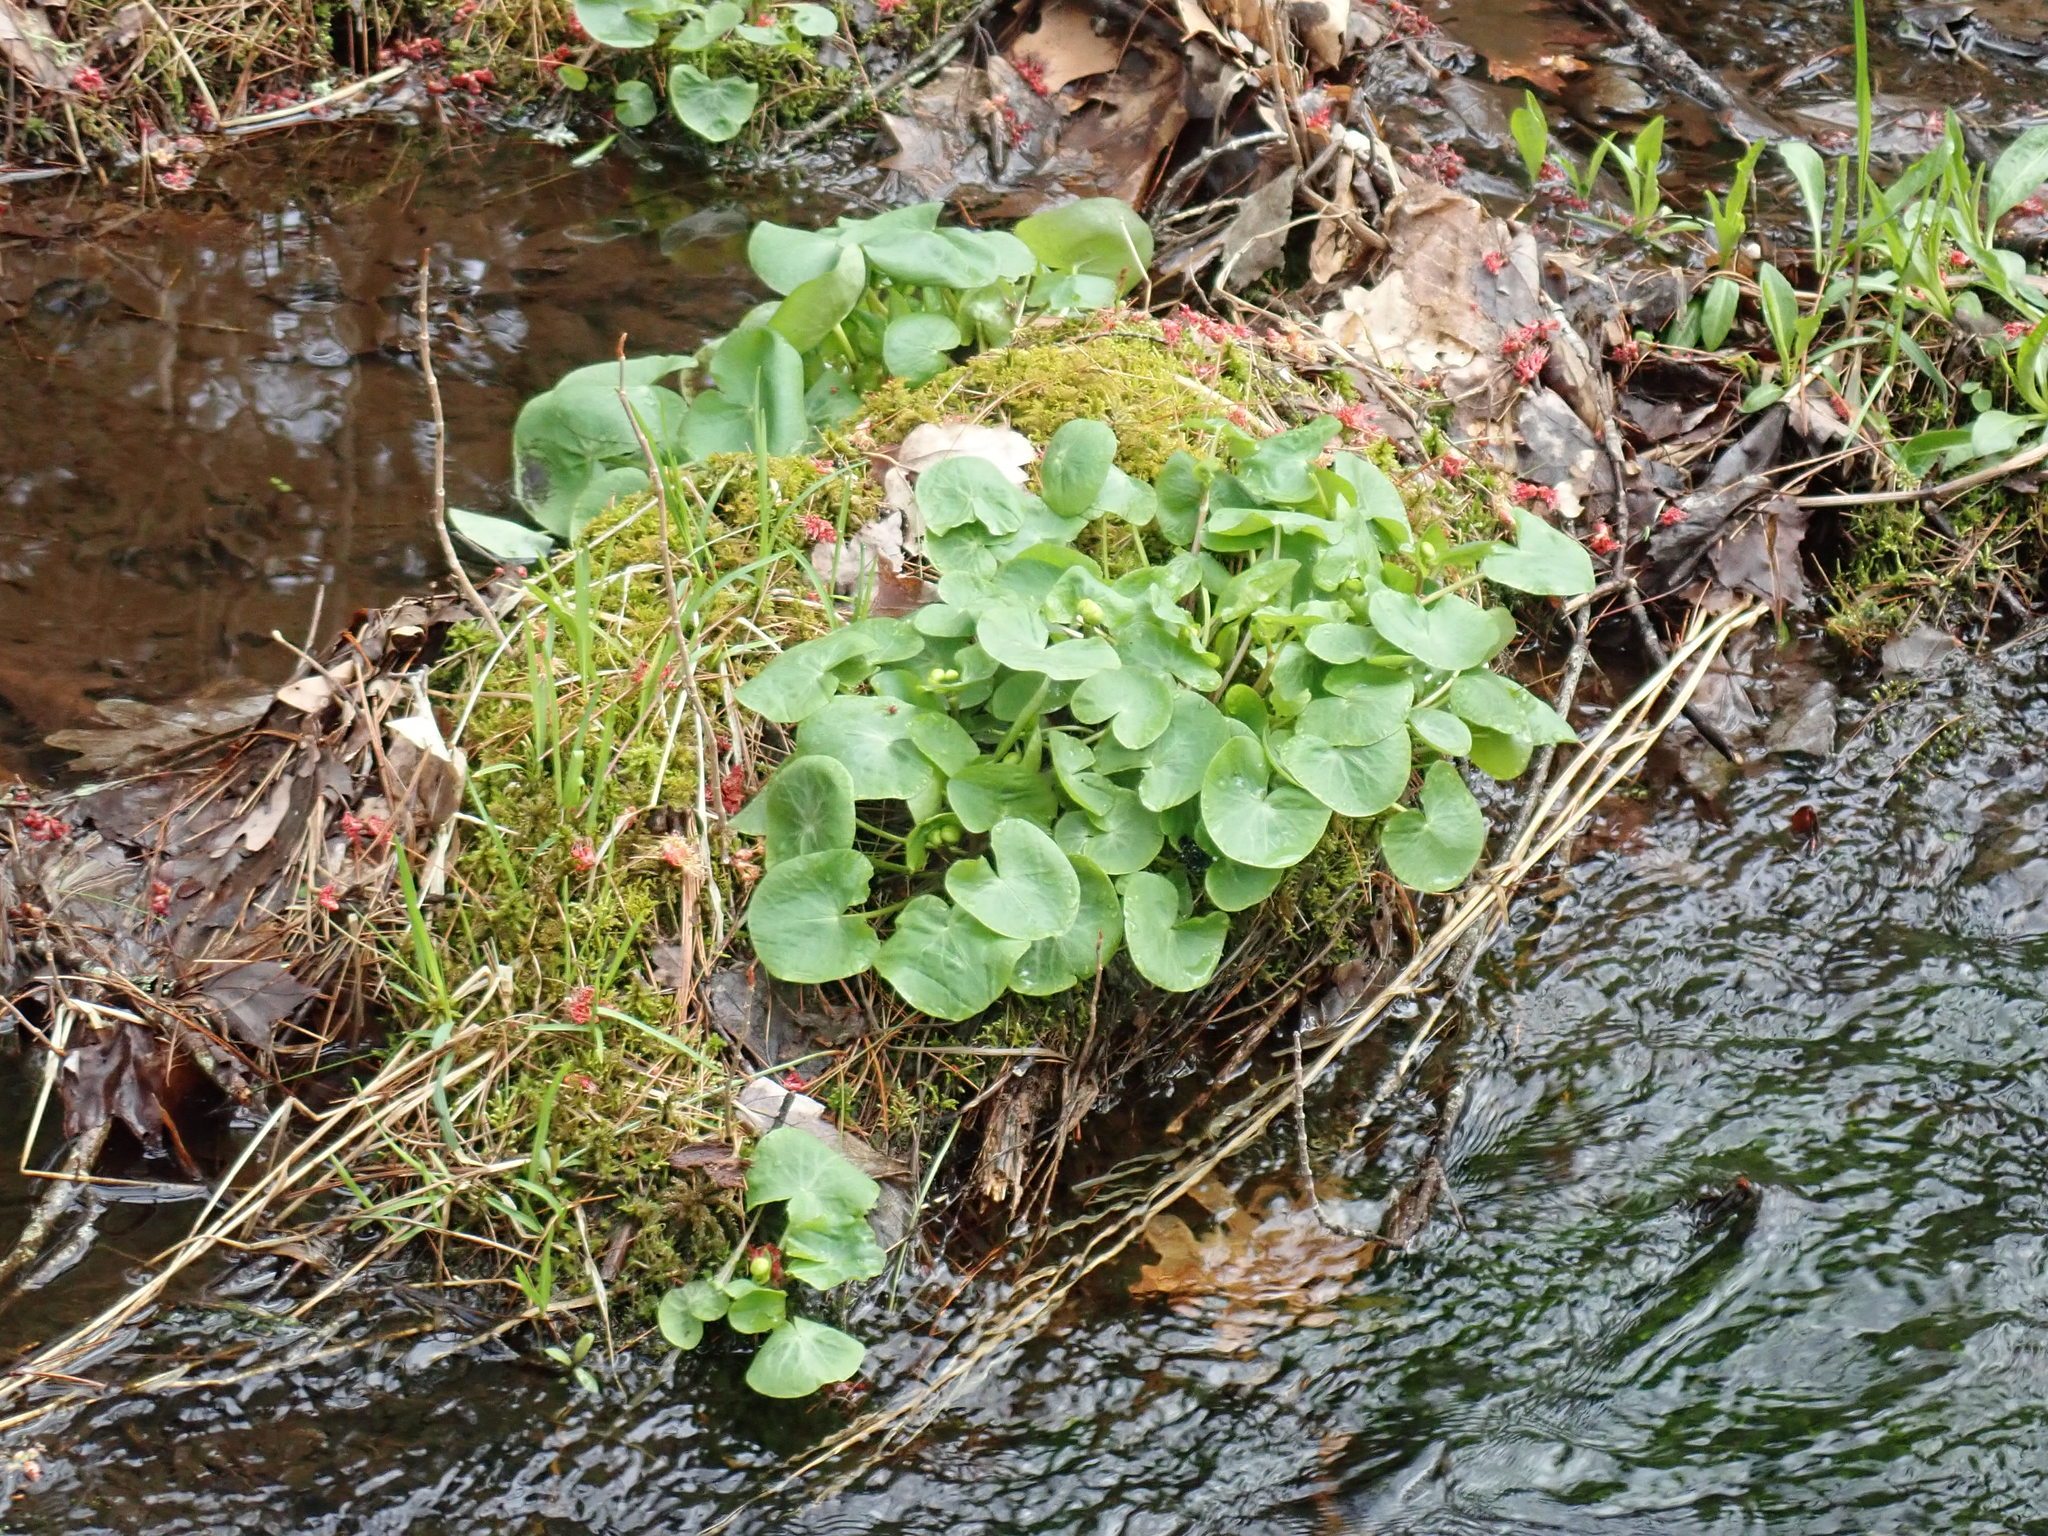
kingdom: Plantae
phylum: Tracheophyta
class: Magnoliopsida
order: Ranunculales
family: Ranunculaceae
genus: Caltha
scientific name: Caltha palustris
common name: Marsh marigold
